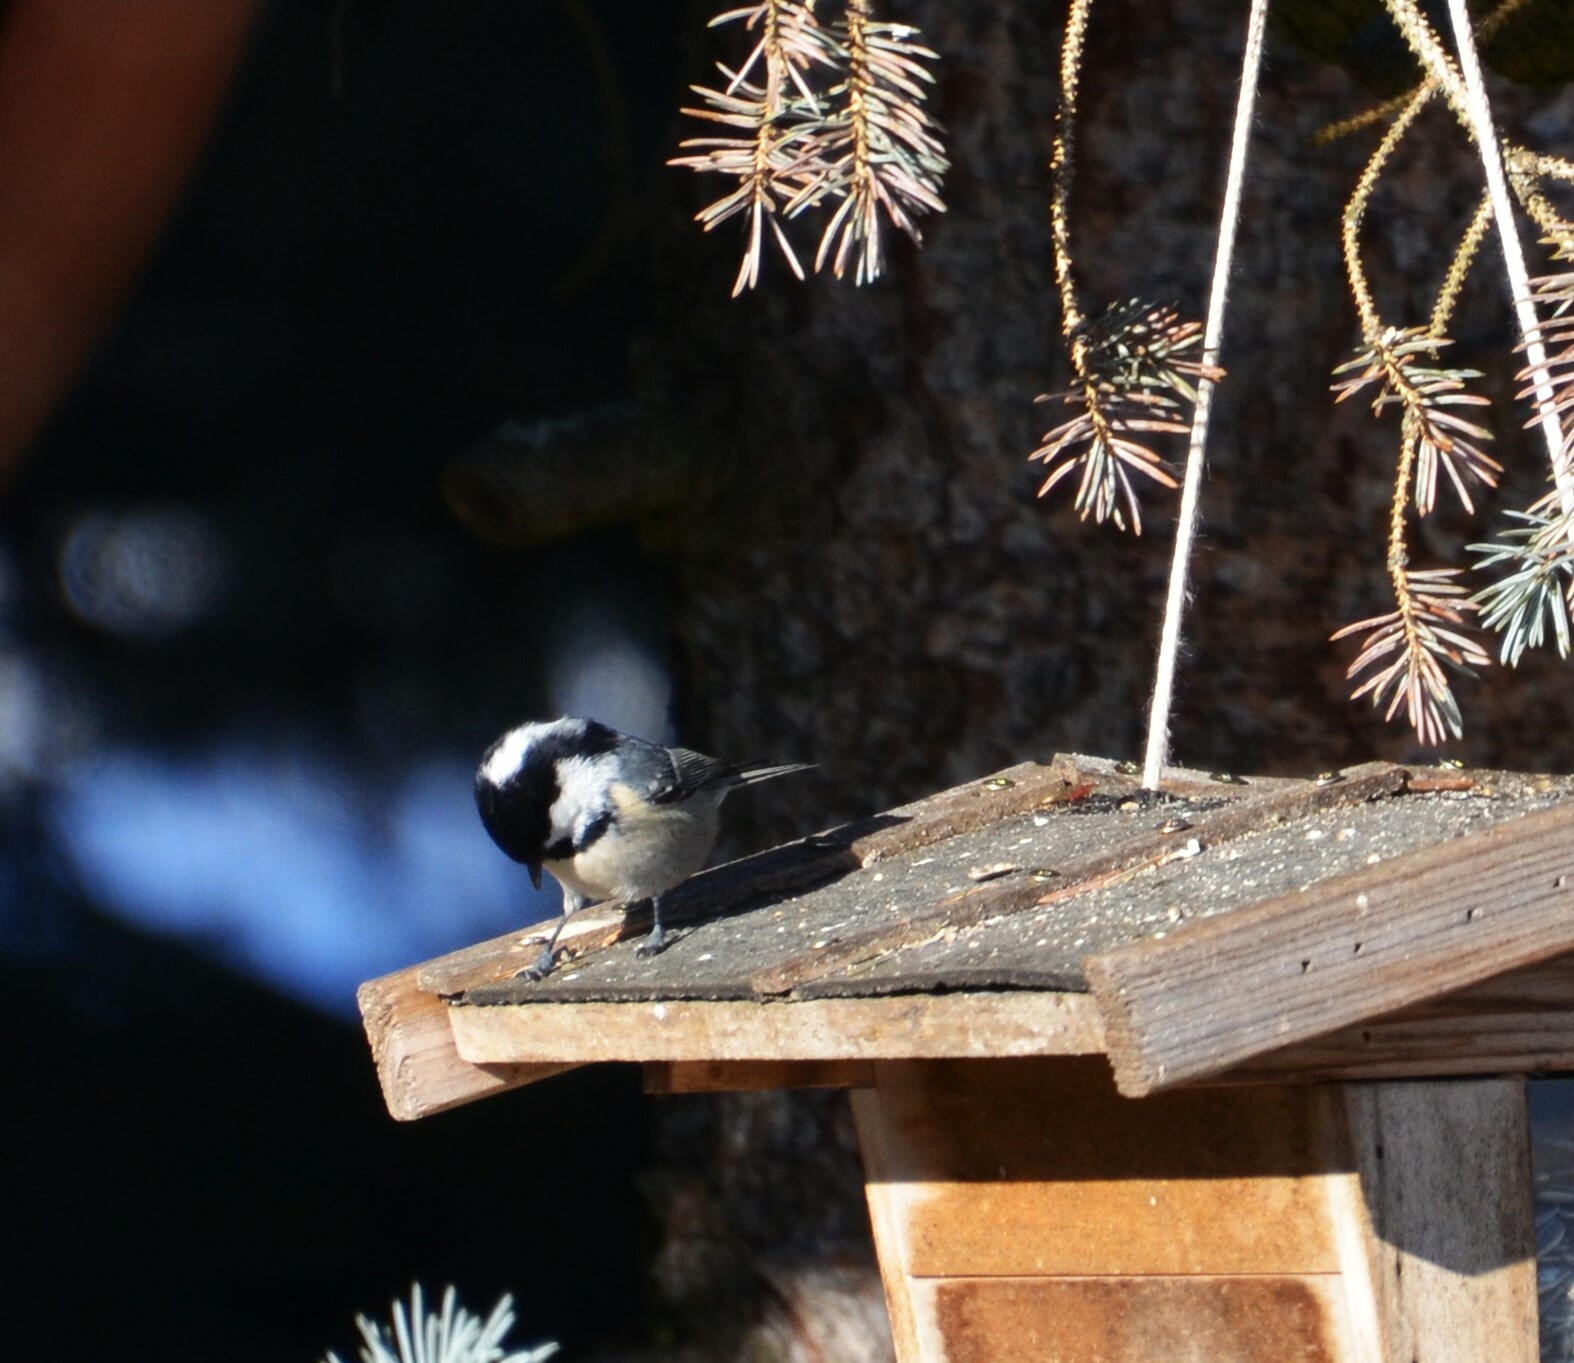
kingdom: Animalia
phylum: Chordata
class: Aves
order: Passeriformes
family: Paridae
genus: Periparus
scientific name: Periparus ater
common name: Coal tit
